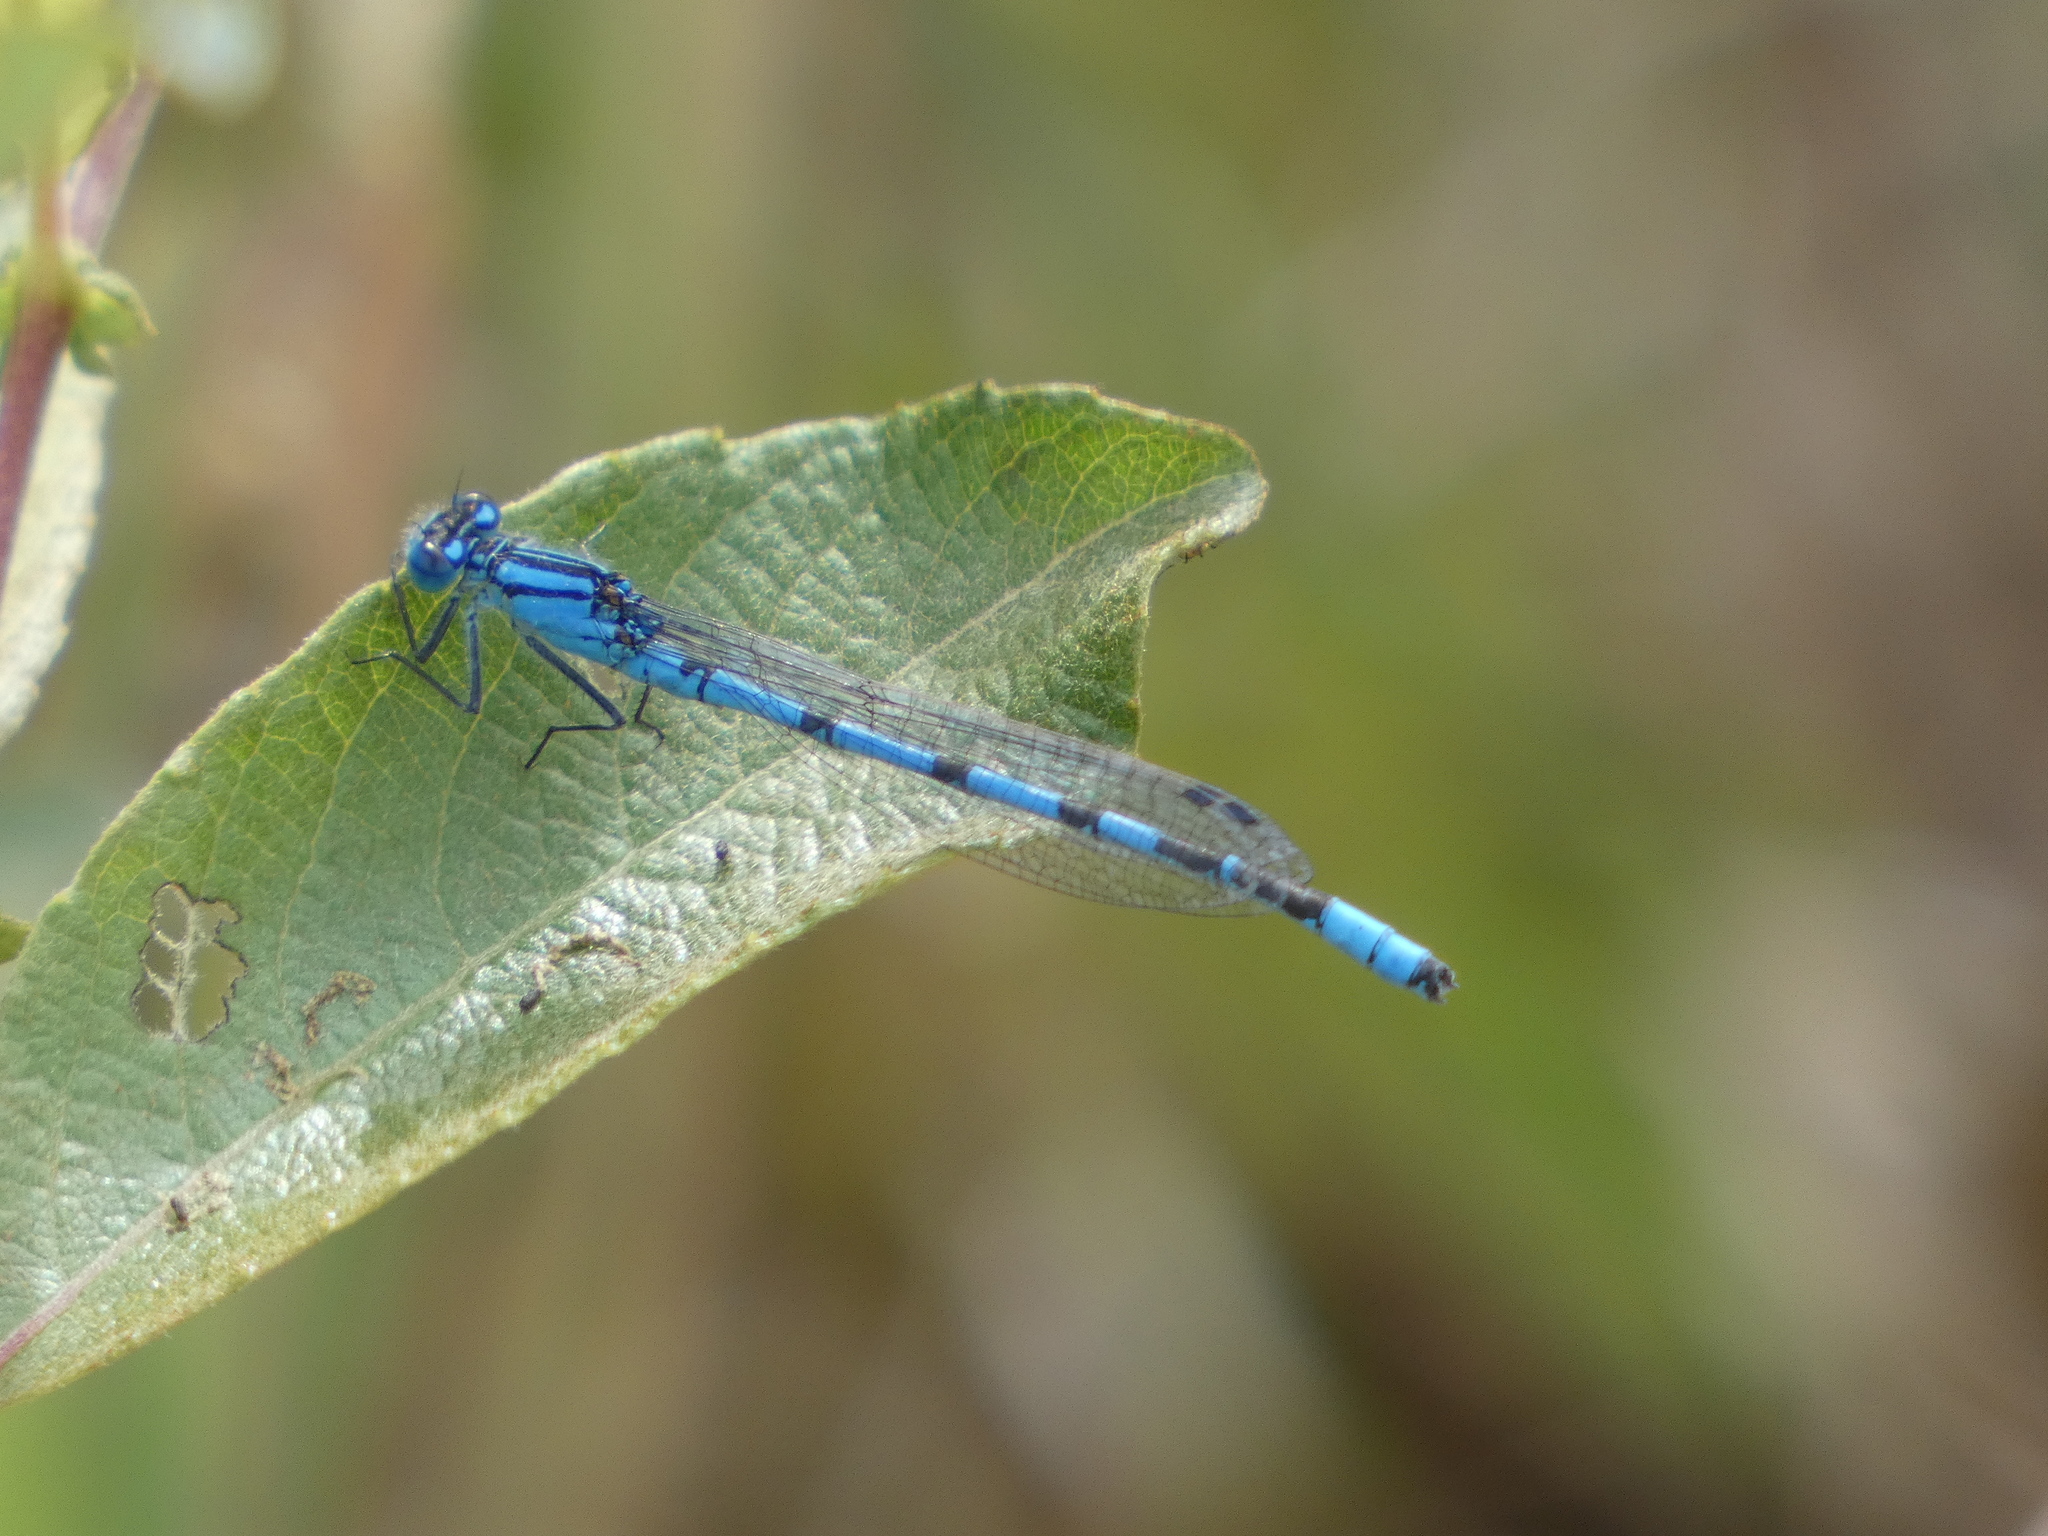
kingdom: Animalia
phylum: Arthropoda
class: Insecta
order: Odonata
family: Coenagrionidae
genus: Enallagma
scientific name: Enallagma cyathigerum
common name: Common blue damselfly
